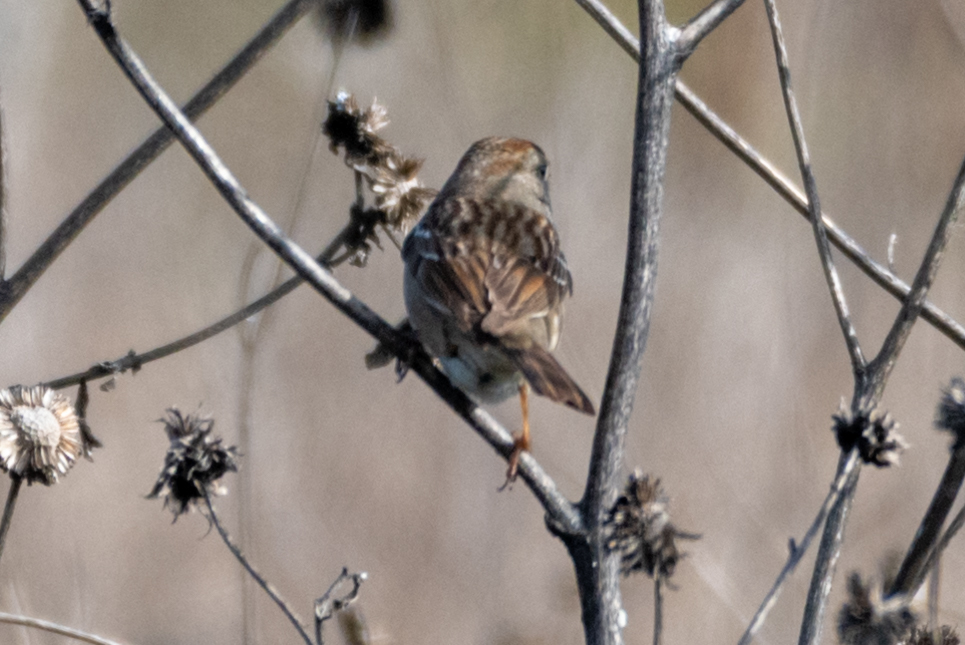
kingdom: Animalia
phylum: Chordata
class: Aves
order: Passeriformes
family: Passerellidae
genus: Zonotrichia
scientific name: Zonotrichia leucophrys
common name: White-crowned sparrow
